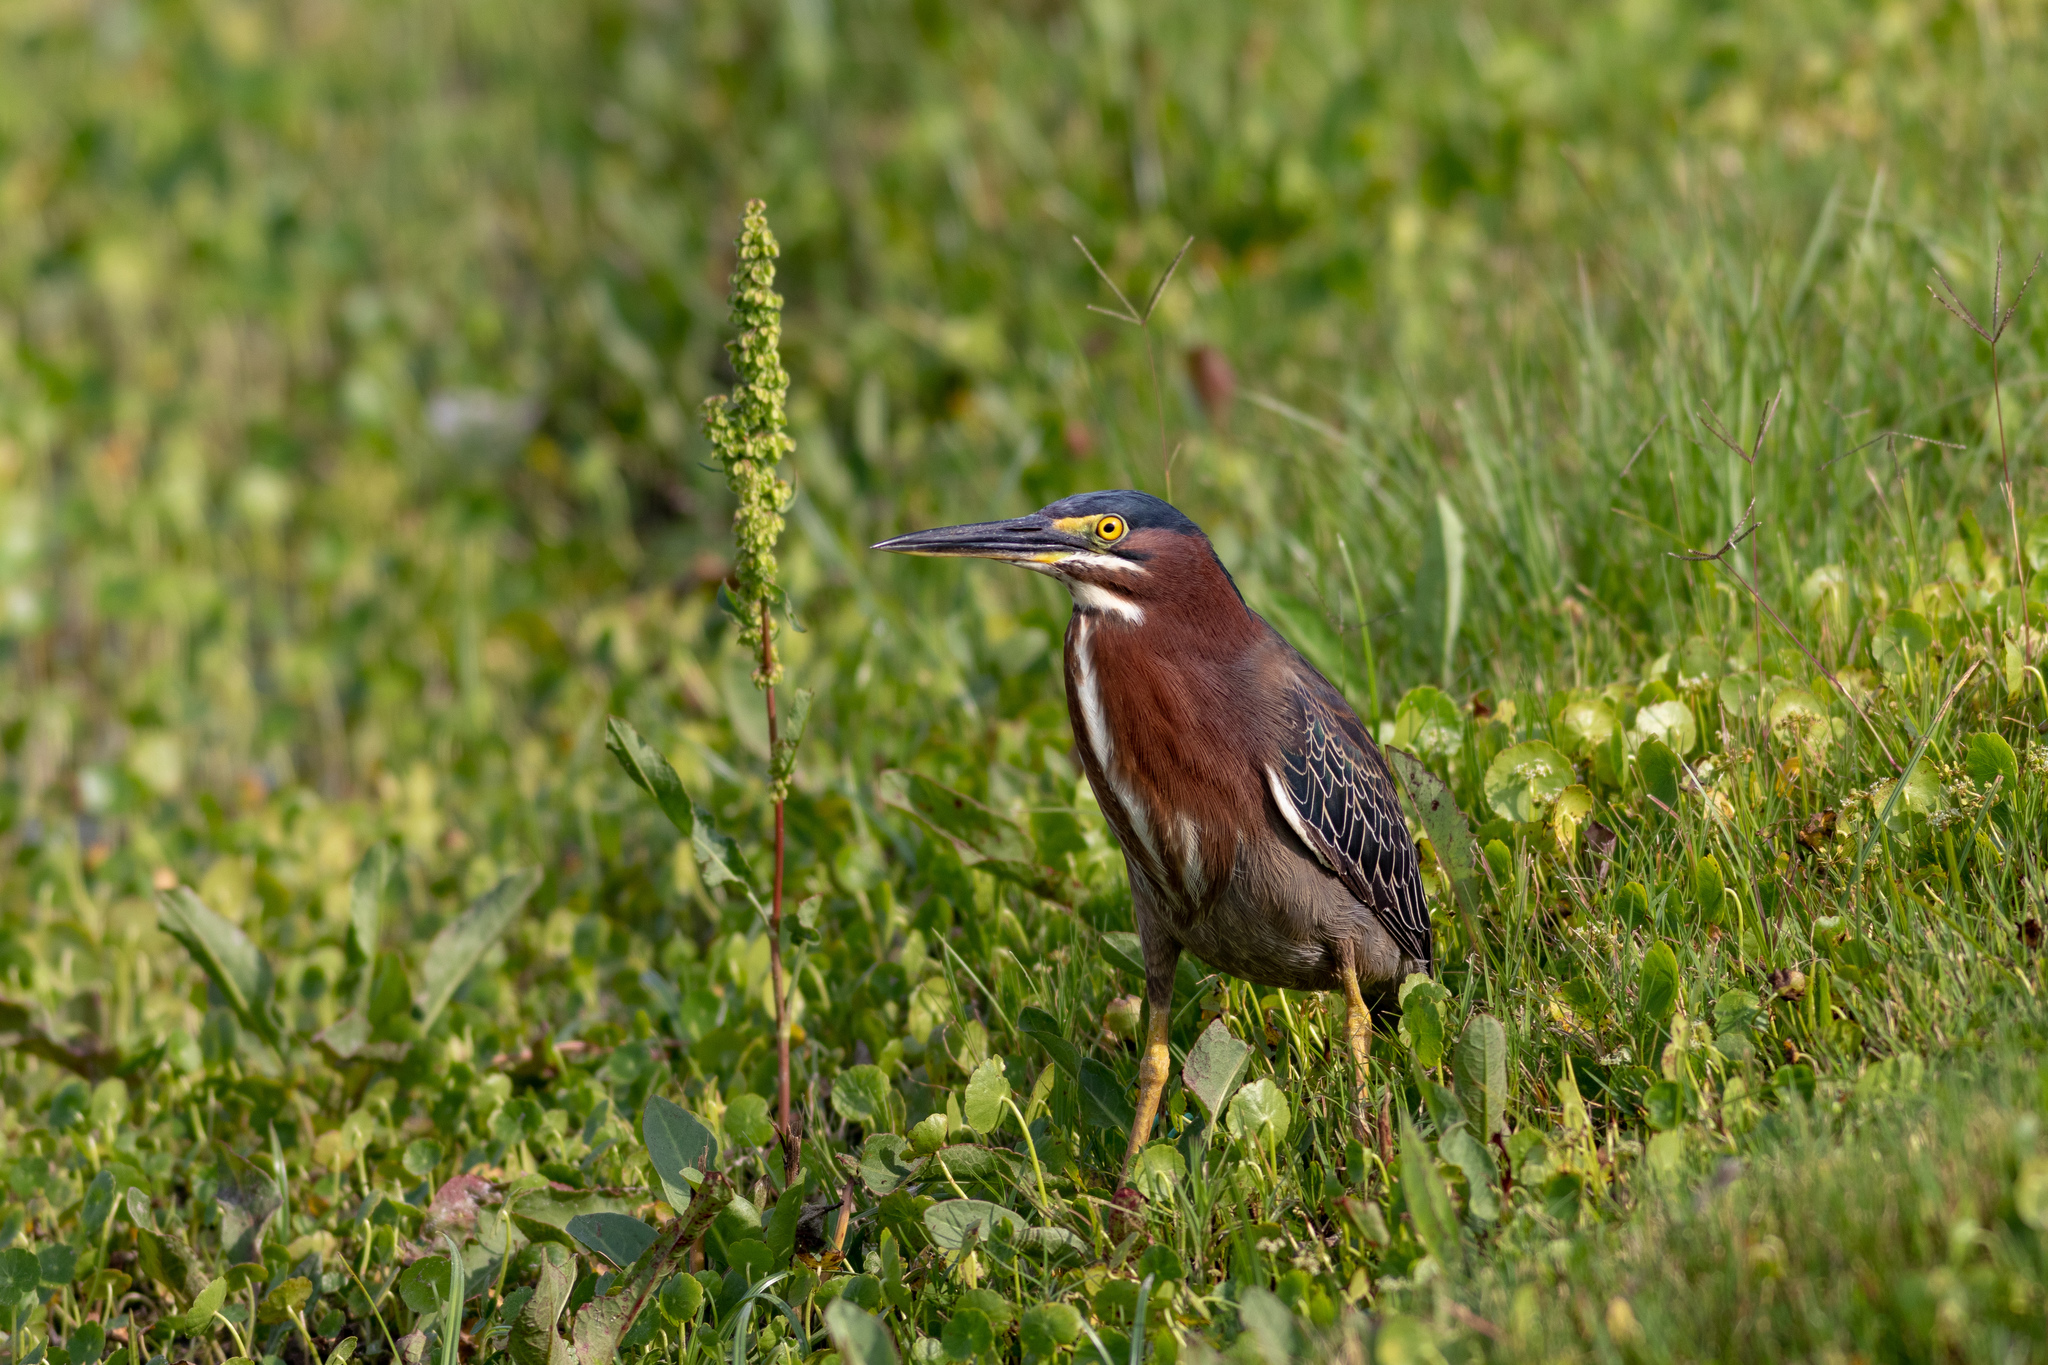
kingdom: Animalia
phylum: Chordata
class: Aves
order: Pelecaniformes
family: Ardeidae
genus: Butorides
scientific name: Butorides virescens
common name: Green heron
